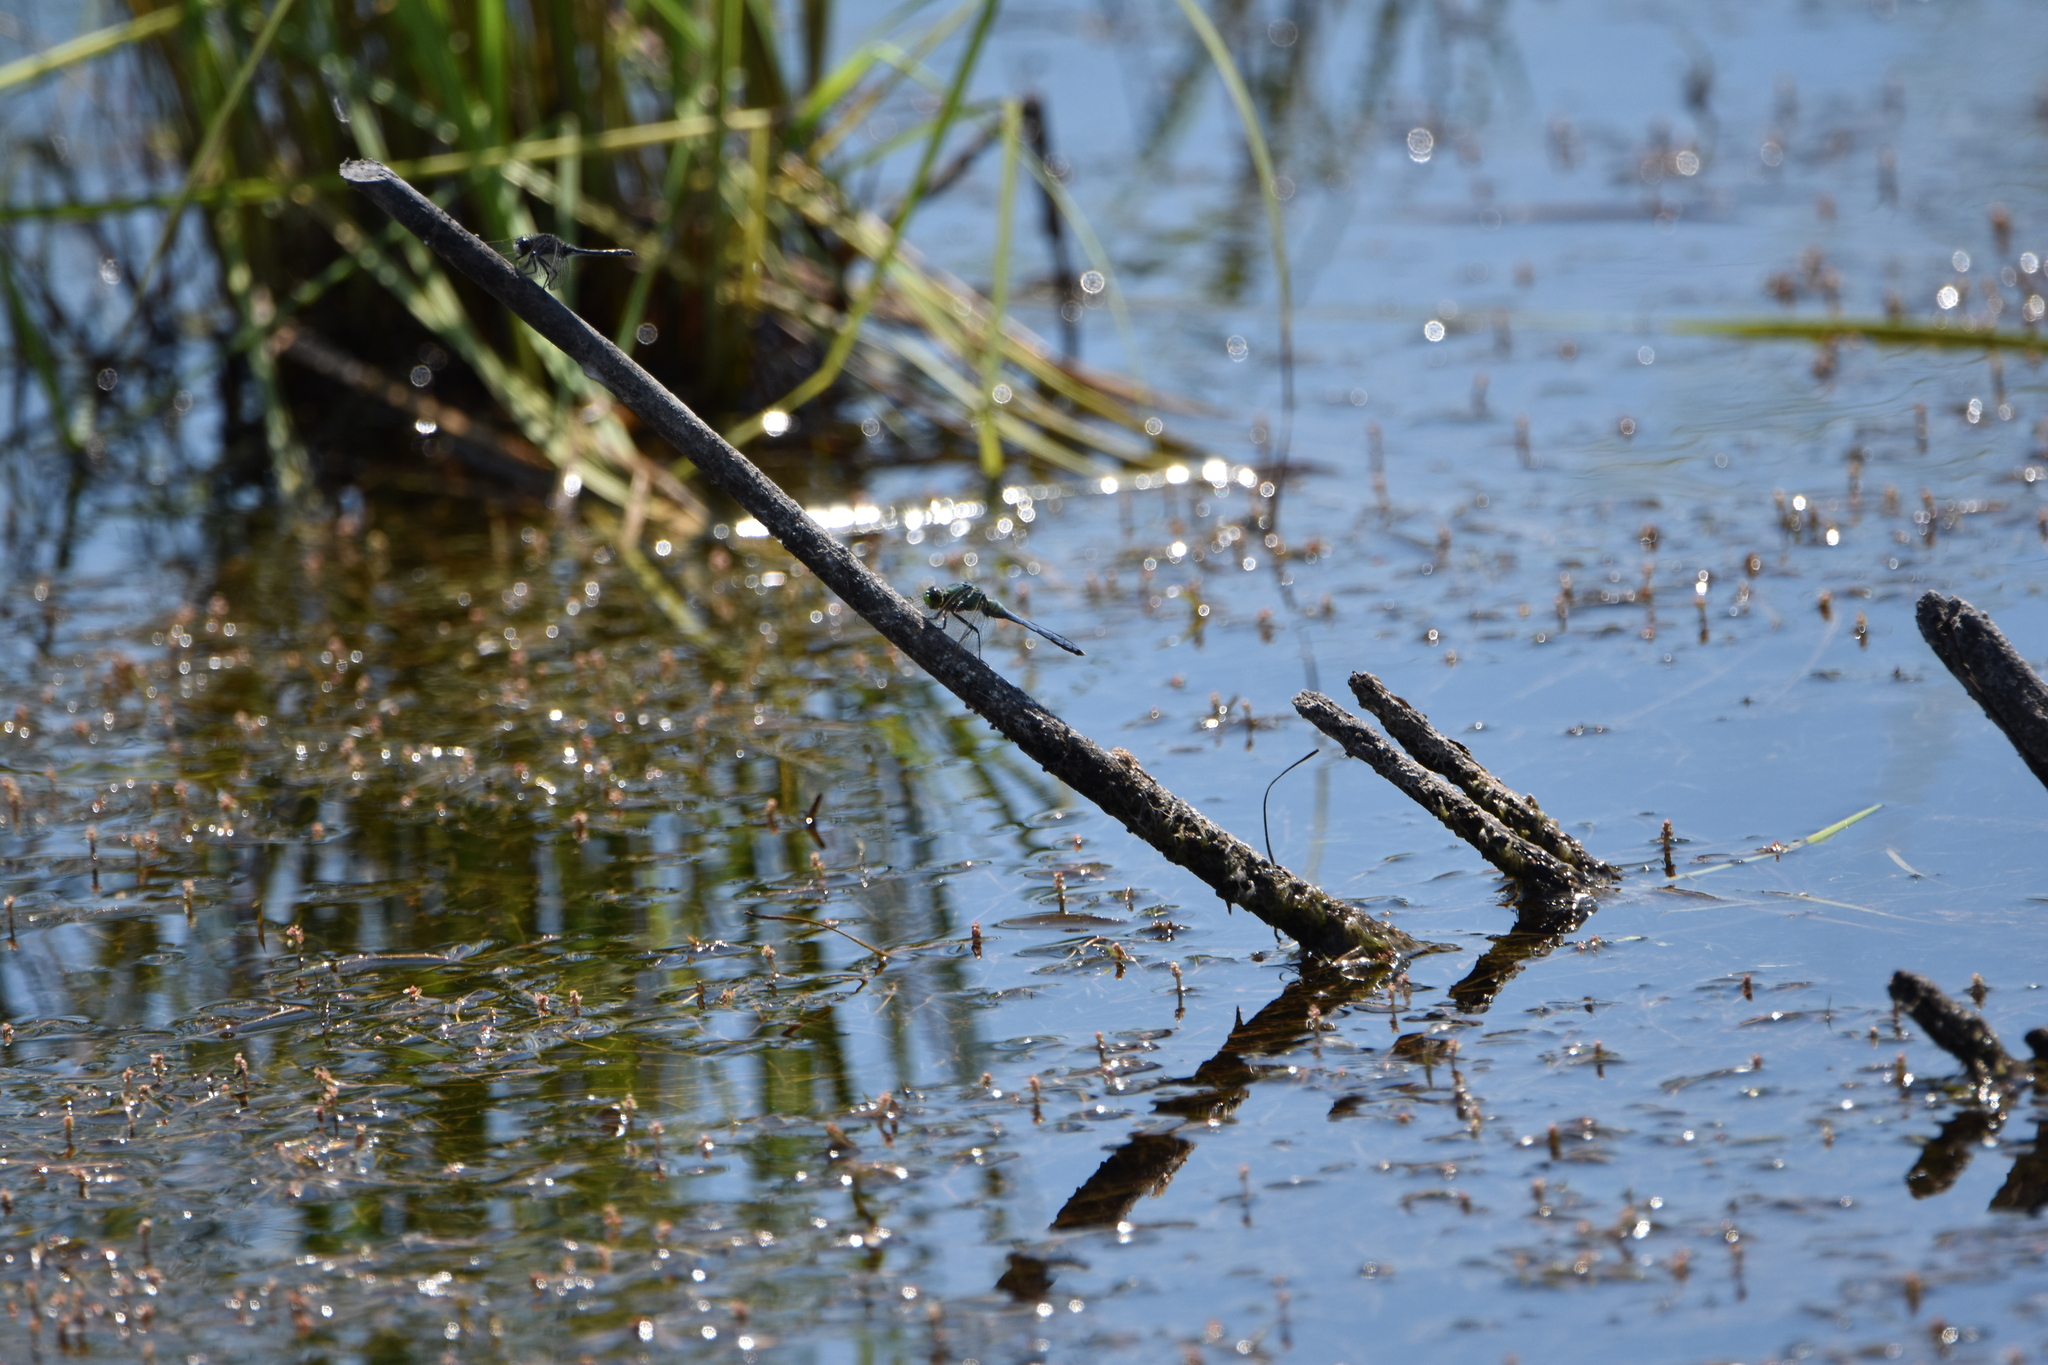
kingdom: Animalia
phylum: Arthropoda
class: Insecta
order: Odonata
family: Libellulidae
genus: Erythemis
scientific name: Erythemis simplicicollis
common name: Eastern pondhawk
